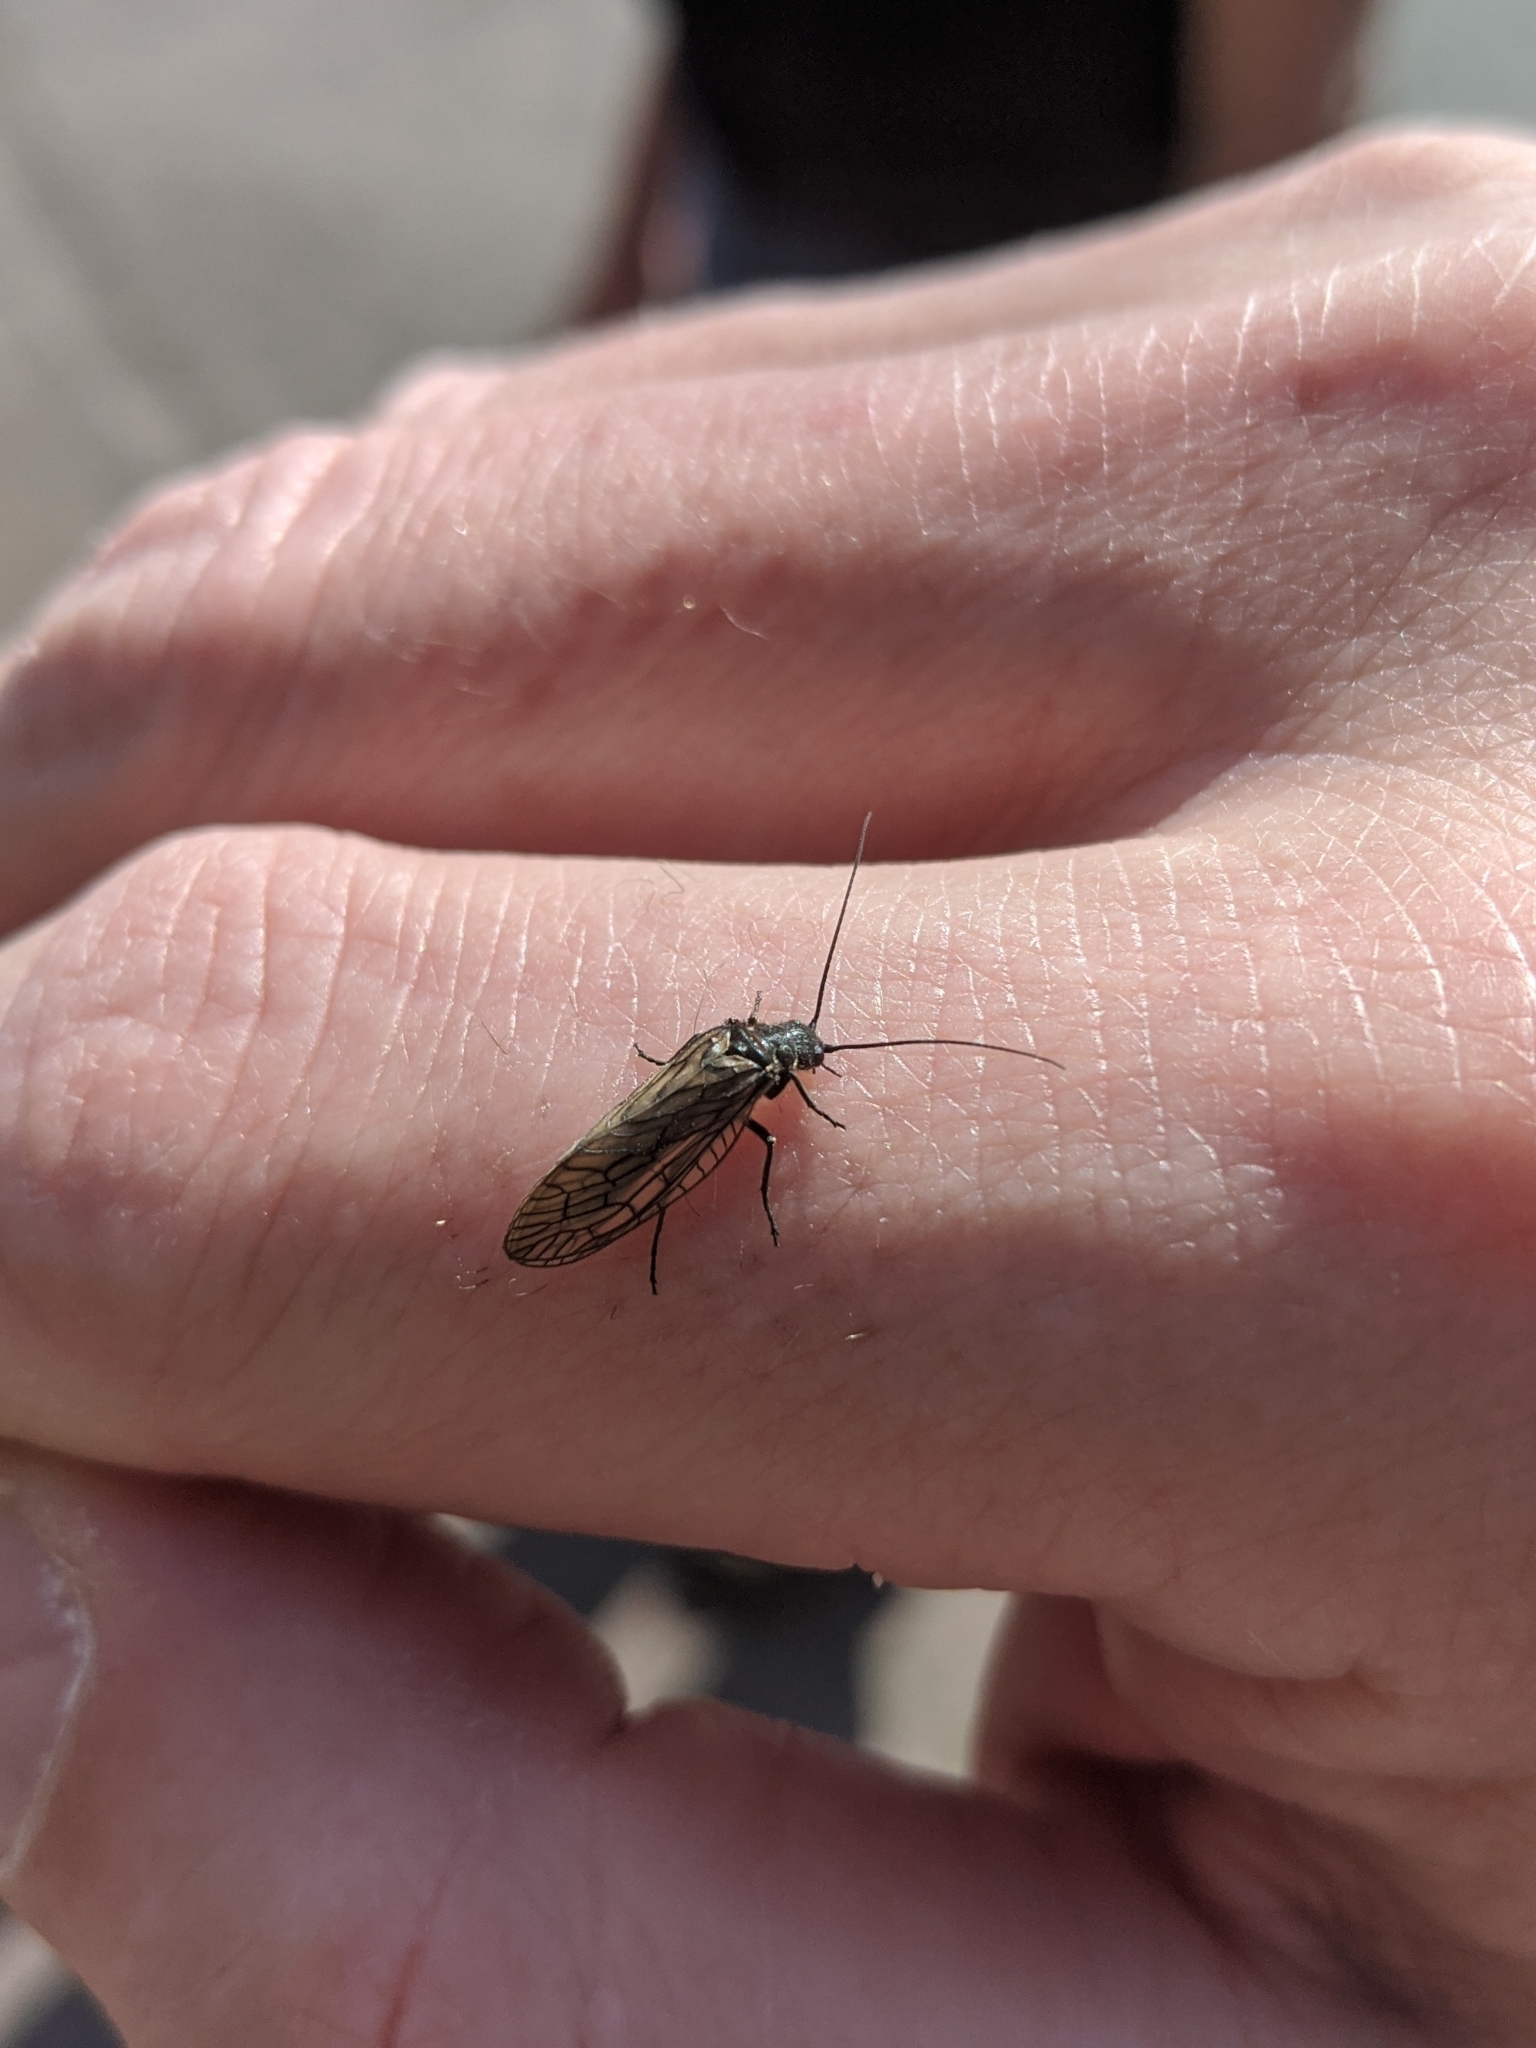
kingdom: Animalia
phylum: Arthropoda
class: Insecta
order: Megaloptera
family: Sialidae
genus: Sialis
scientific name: Sialis
